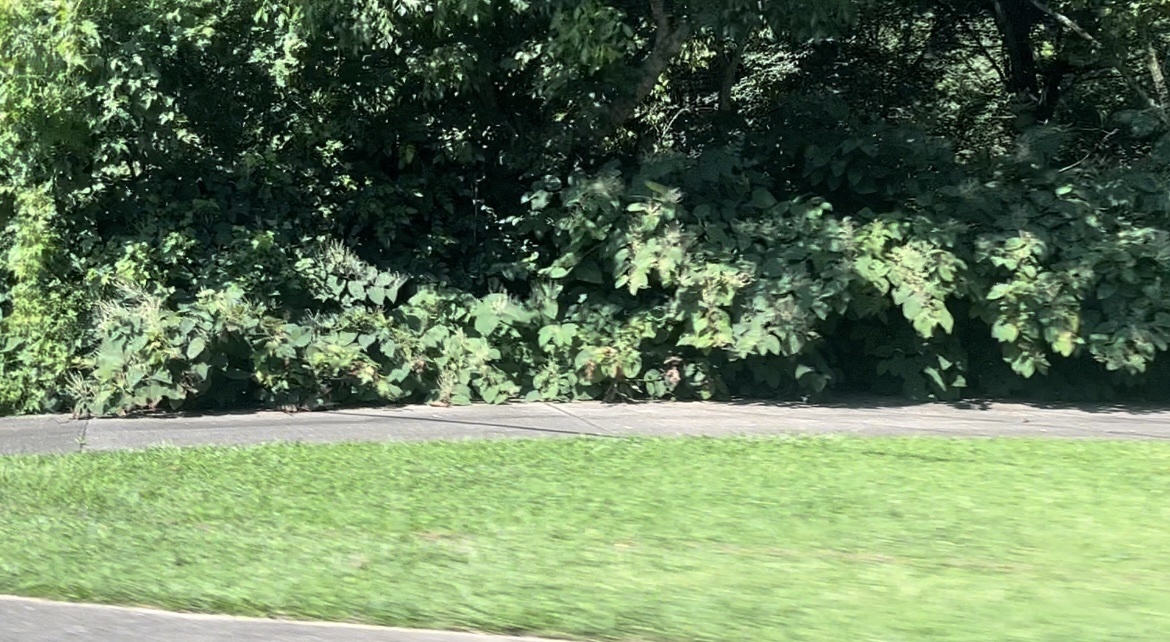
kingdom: Plantae
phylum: Tracheophyta
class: Magnoliopsida
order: Caryophyllales
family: Polygonaceae
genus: Reynoutria
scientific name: Reynoutria japonica
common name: Japanese knotweed
